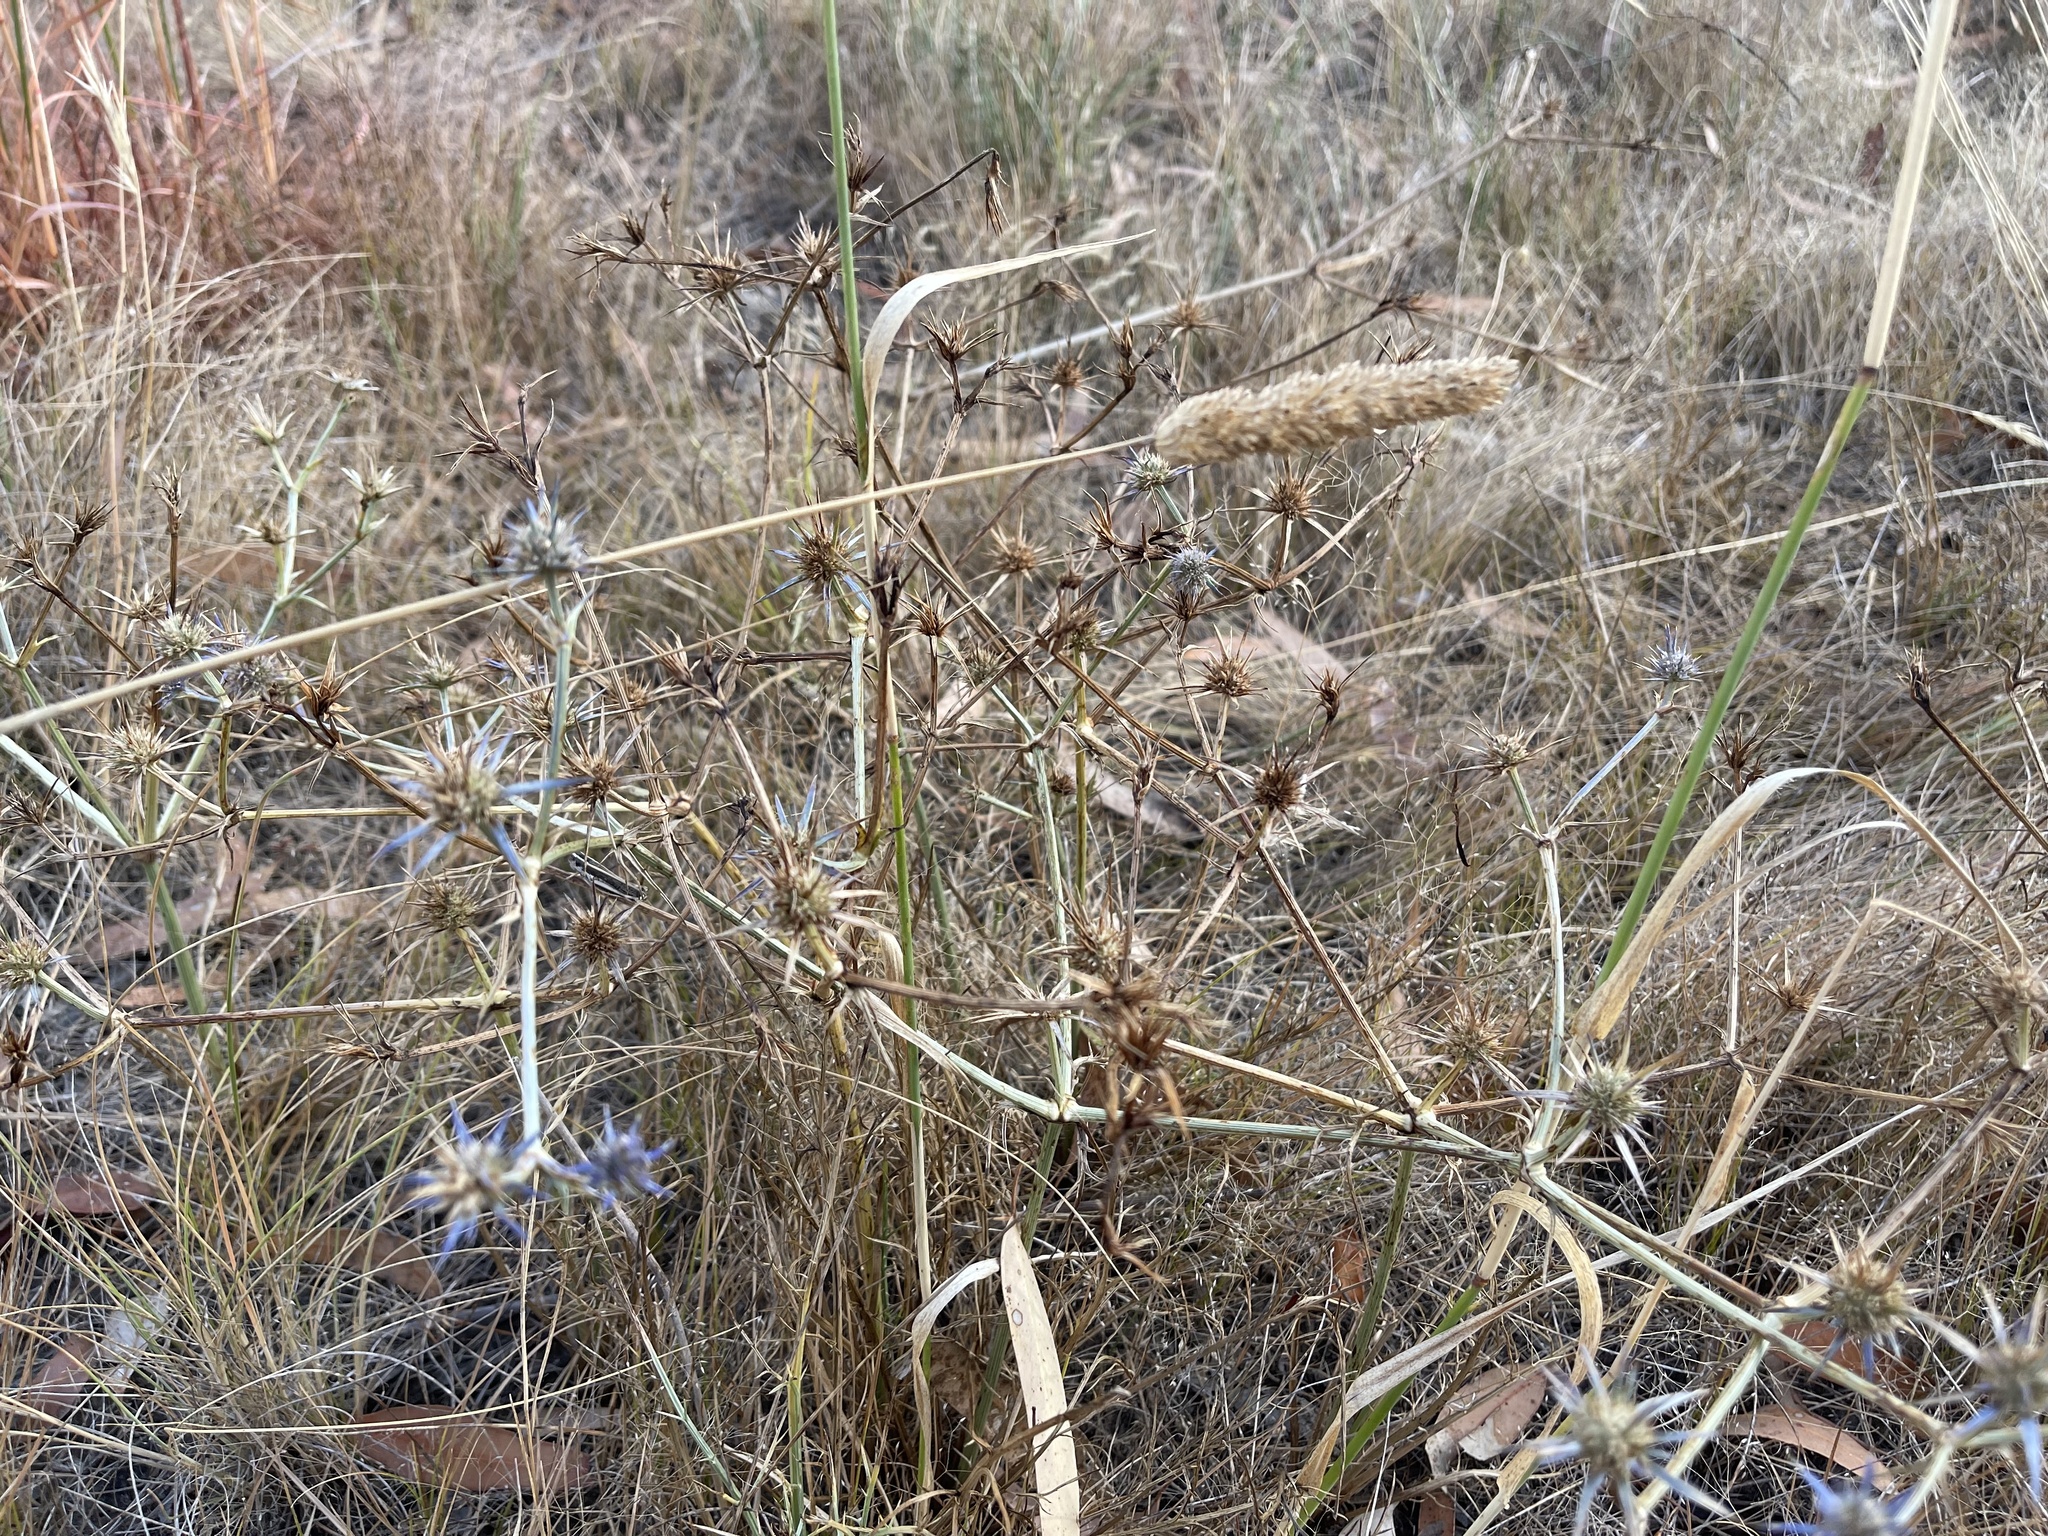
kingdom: Plantae
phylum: Tracheophyta
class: Magnoliopsida
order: Apiales
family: Apiaceae
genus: Eryngium
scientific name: Eryngium ovinum
